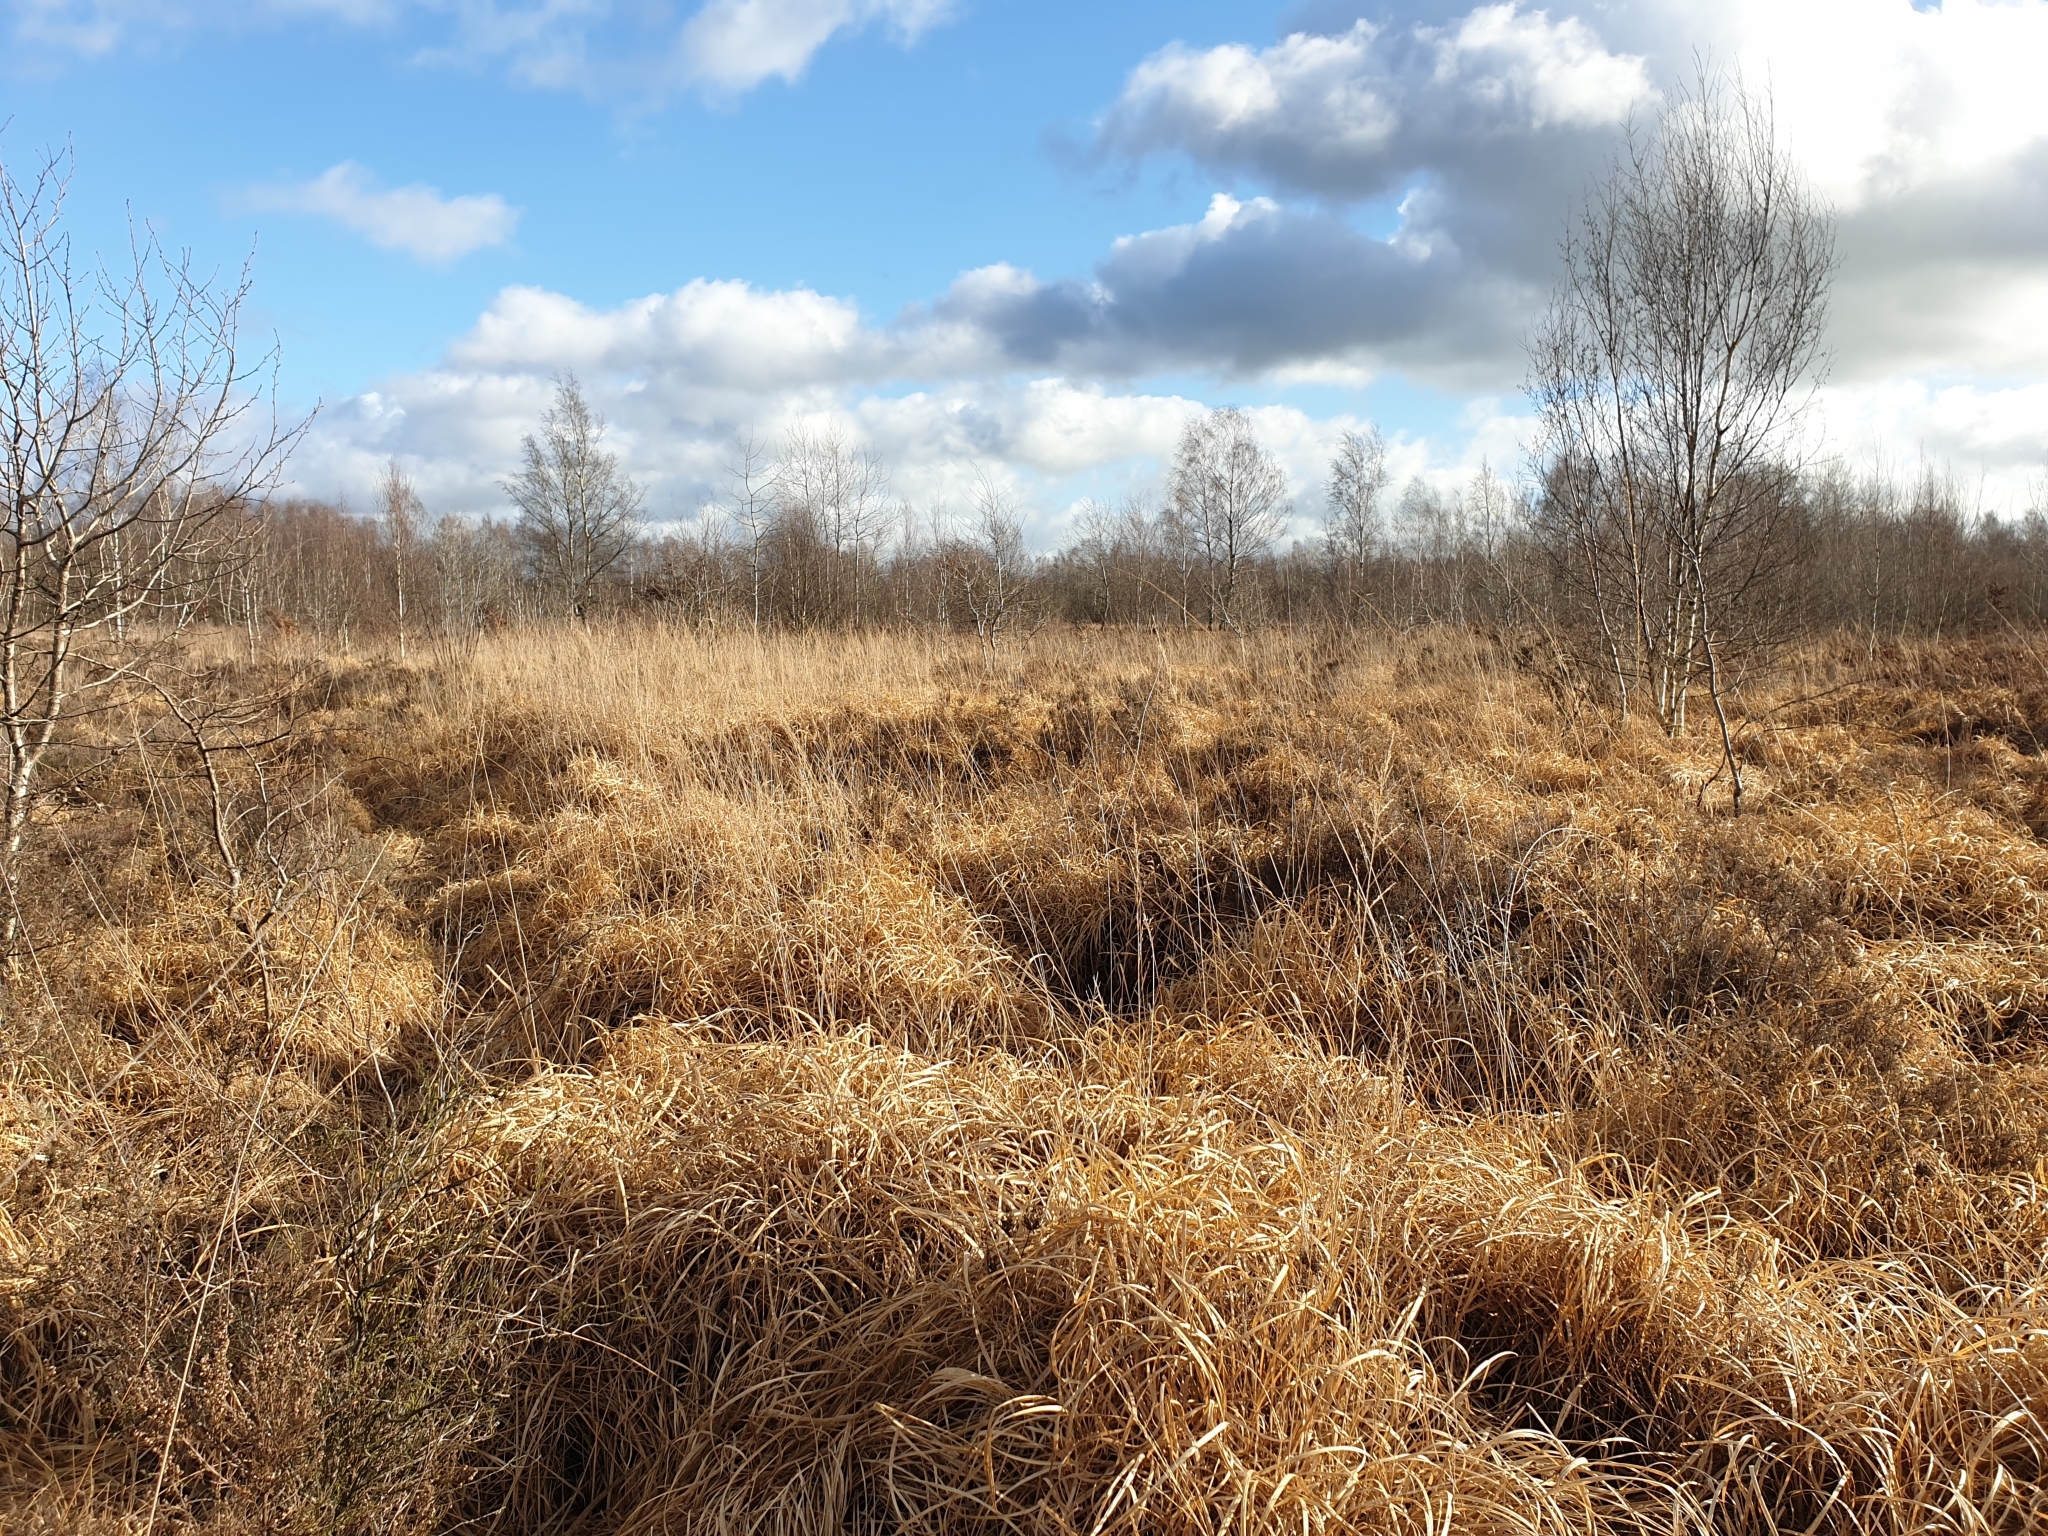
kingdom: Plantae
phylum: Tracheophyta
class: Liliopsida
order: Poales
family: Poaceae
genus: Molinia
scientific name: Molinia caerulea
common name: Purple moor-grass
